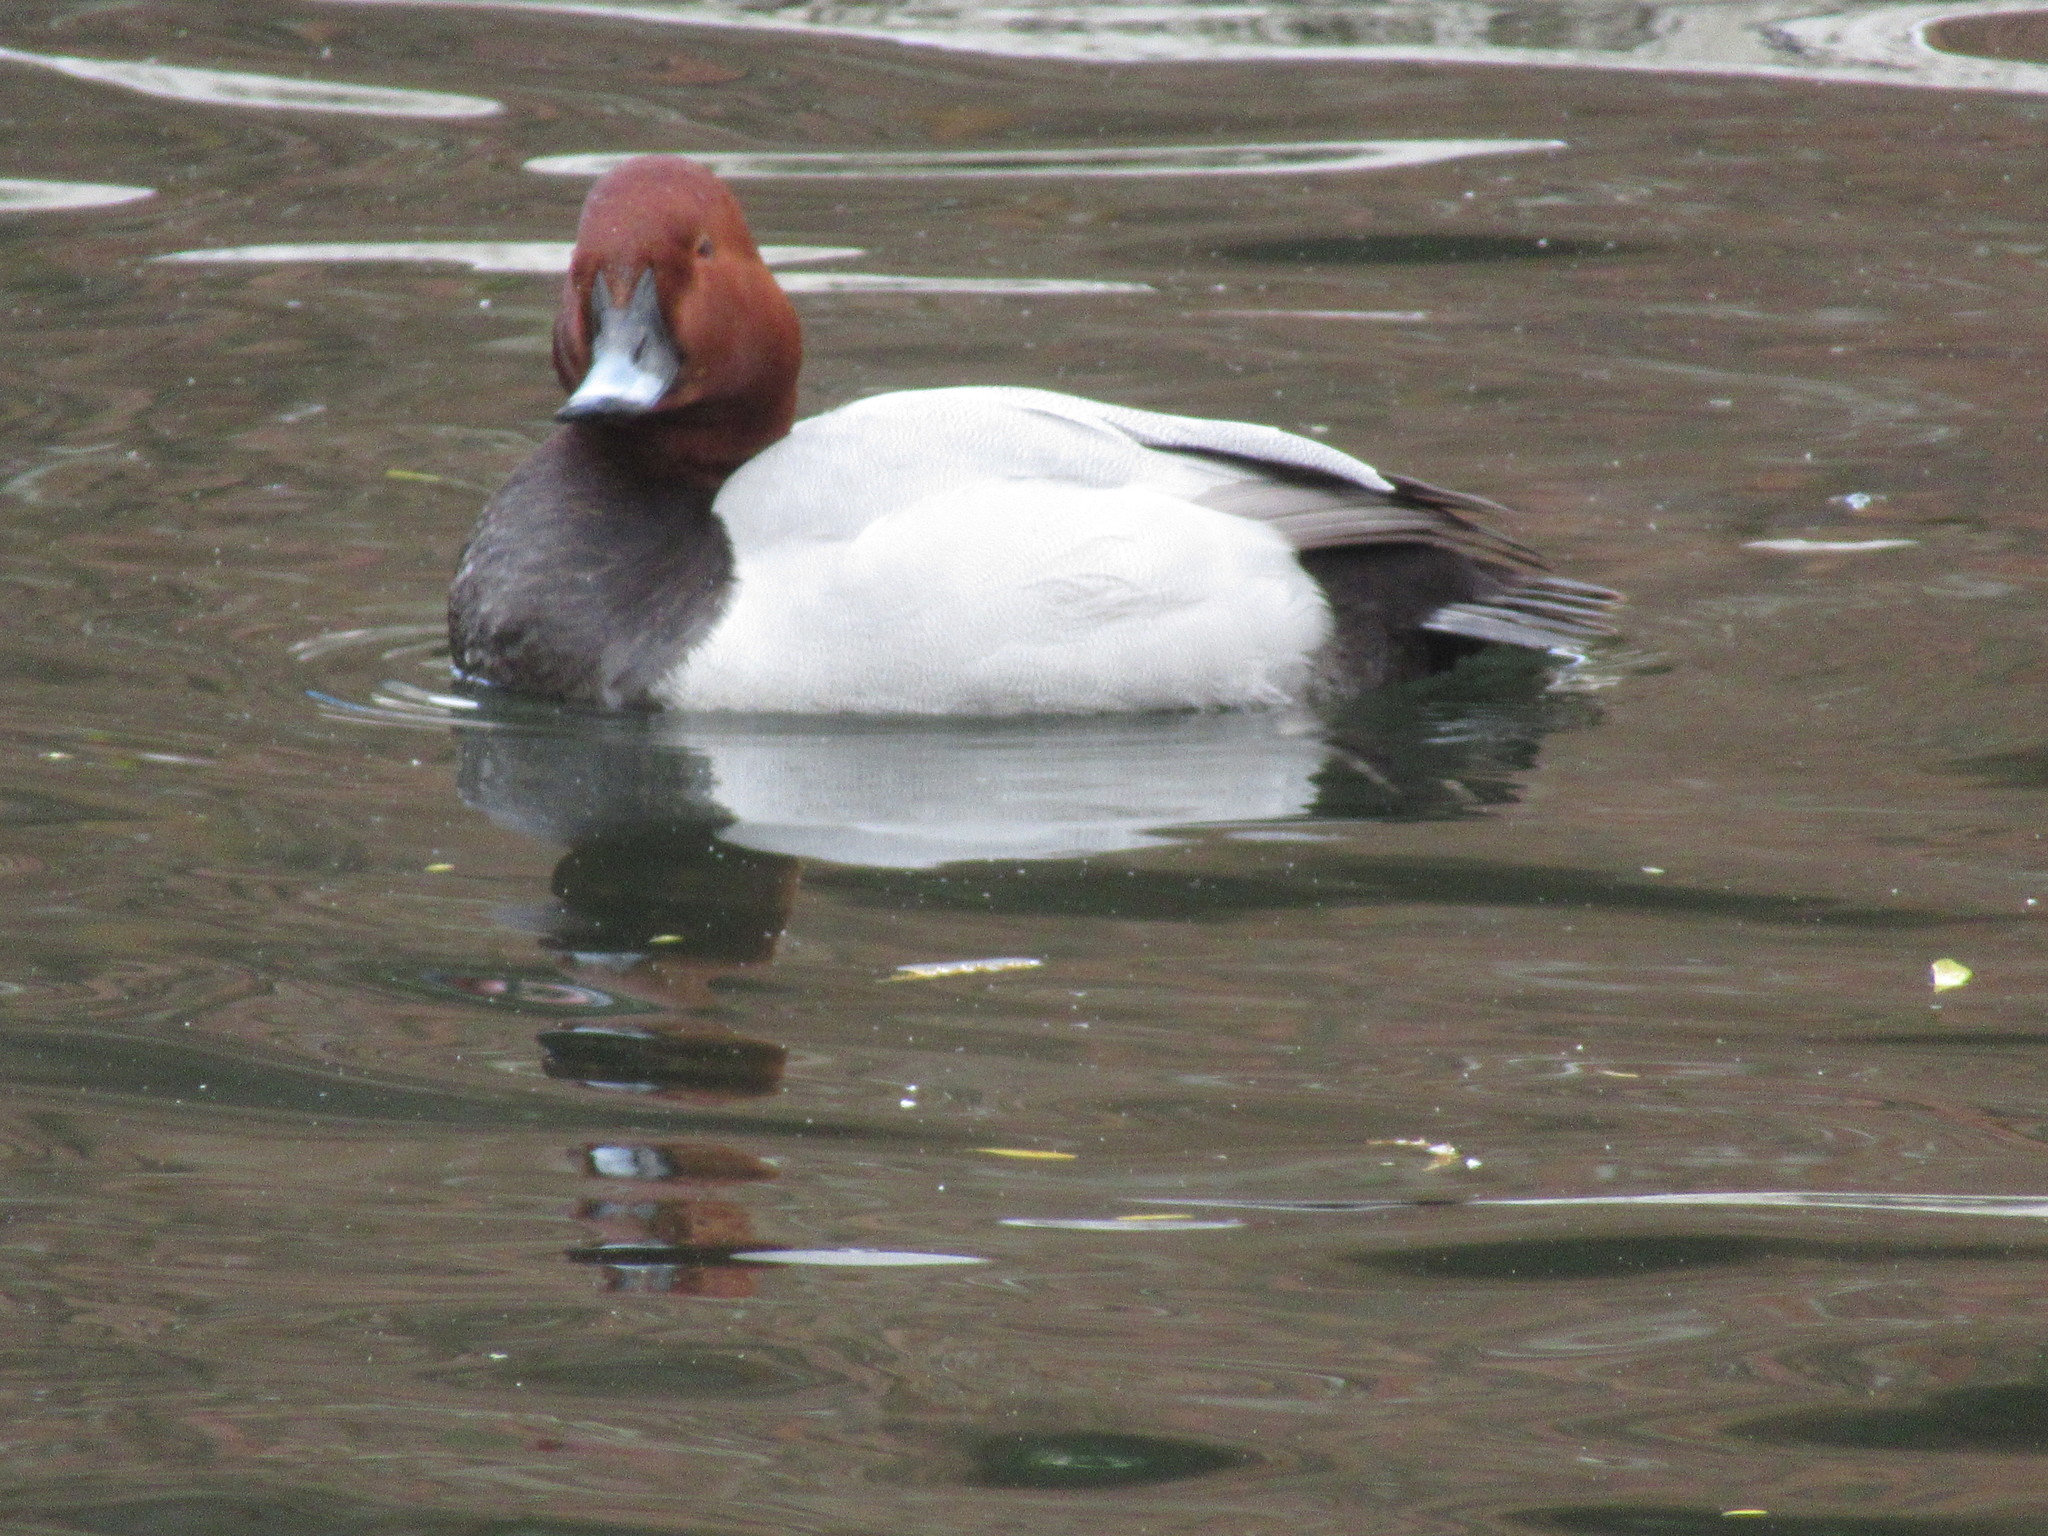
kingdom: Animalia
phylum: Chordata
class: Aves
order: Anseriformes
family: Anatidae
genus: Aythya
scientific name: Aythya ferina
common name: Common pochard
